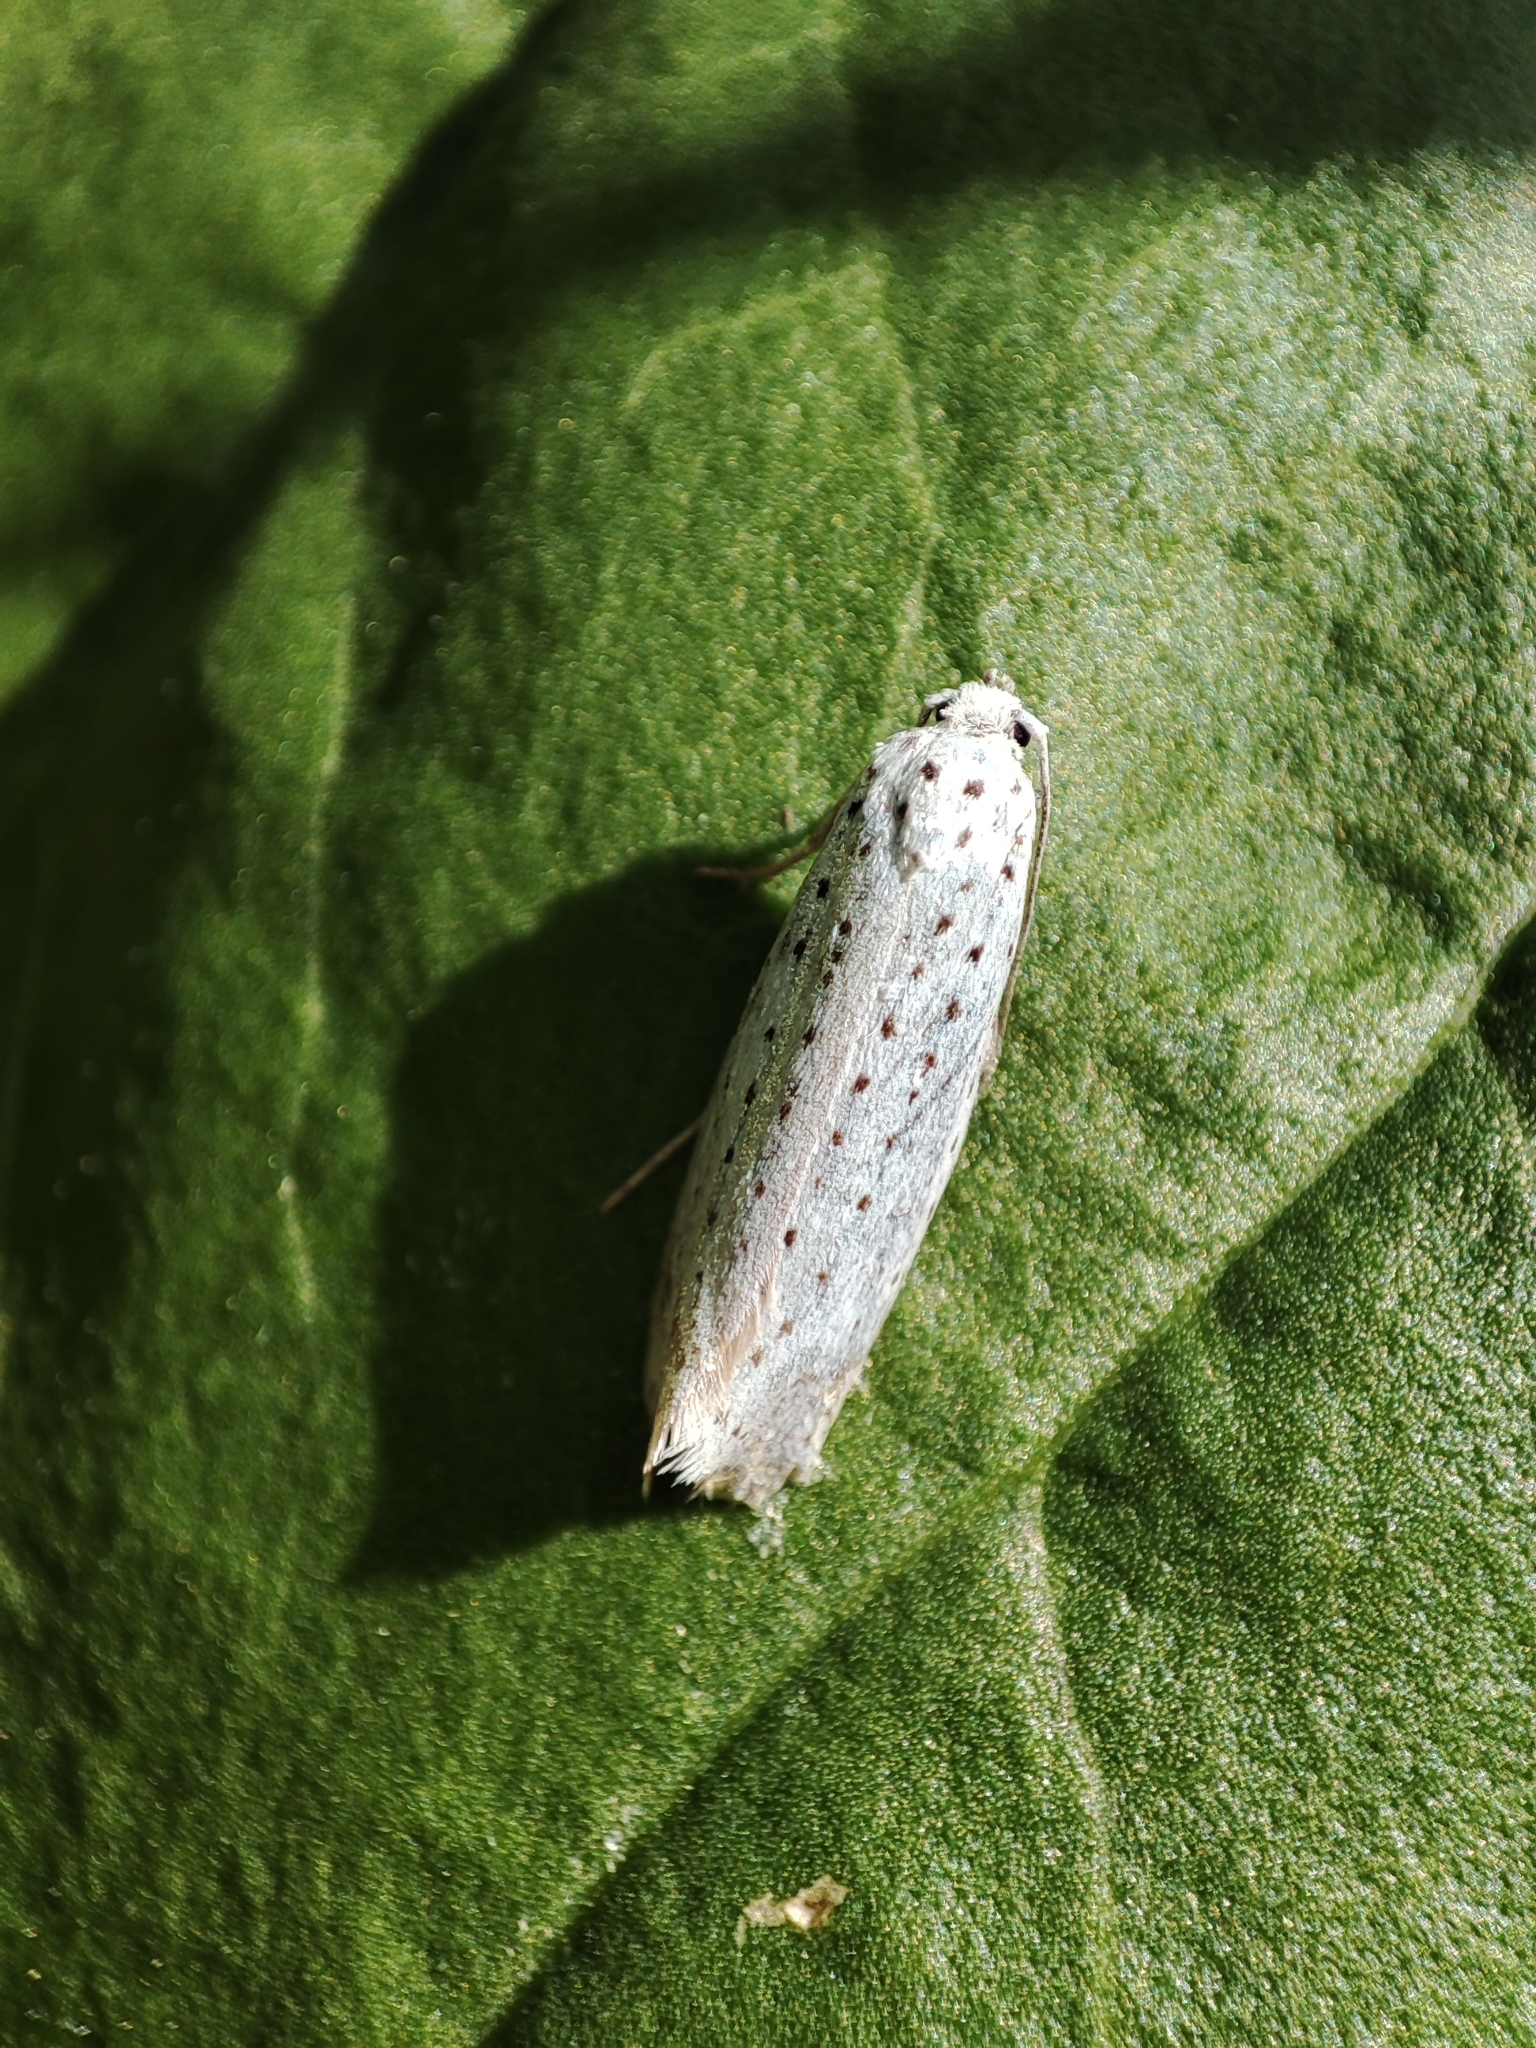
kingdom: Animalia
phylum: Arthropoda
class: Insecta
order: Lepidoptera
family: Yponomeutidae
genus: Yponomeuta
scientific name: Yponomeuta evonymella
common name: Bird-cherry ermine
